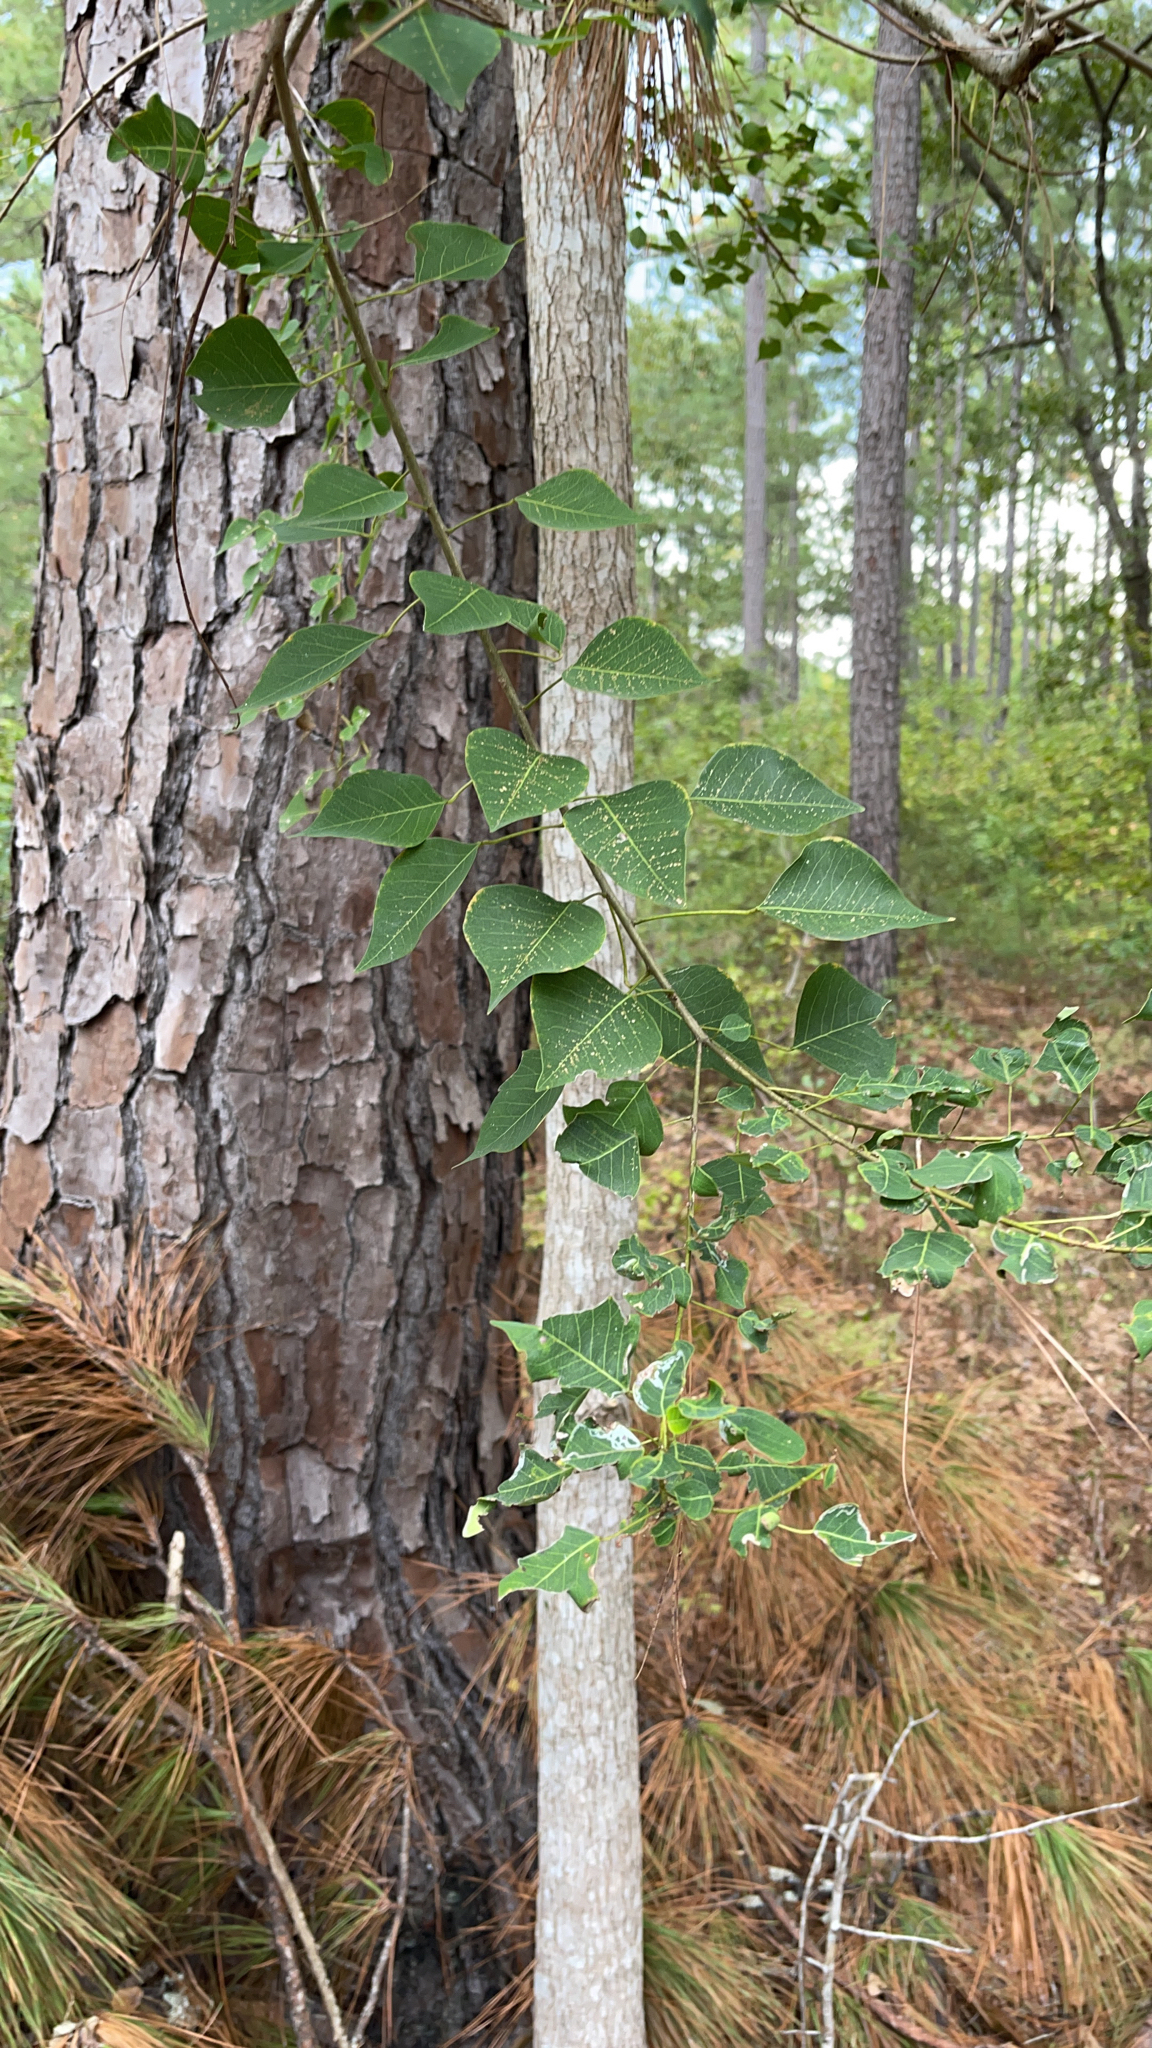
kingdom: Plantae
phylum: Tracheophyta
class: Magnoliopsida
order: Malpighiales
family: Euphorbiaceae
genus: Triadica
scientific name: Triadica sebifera
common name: Chinese tallow
